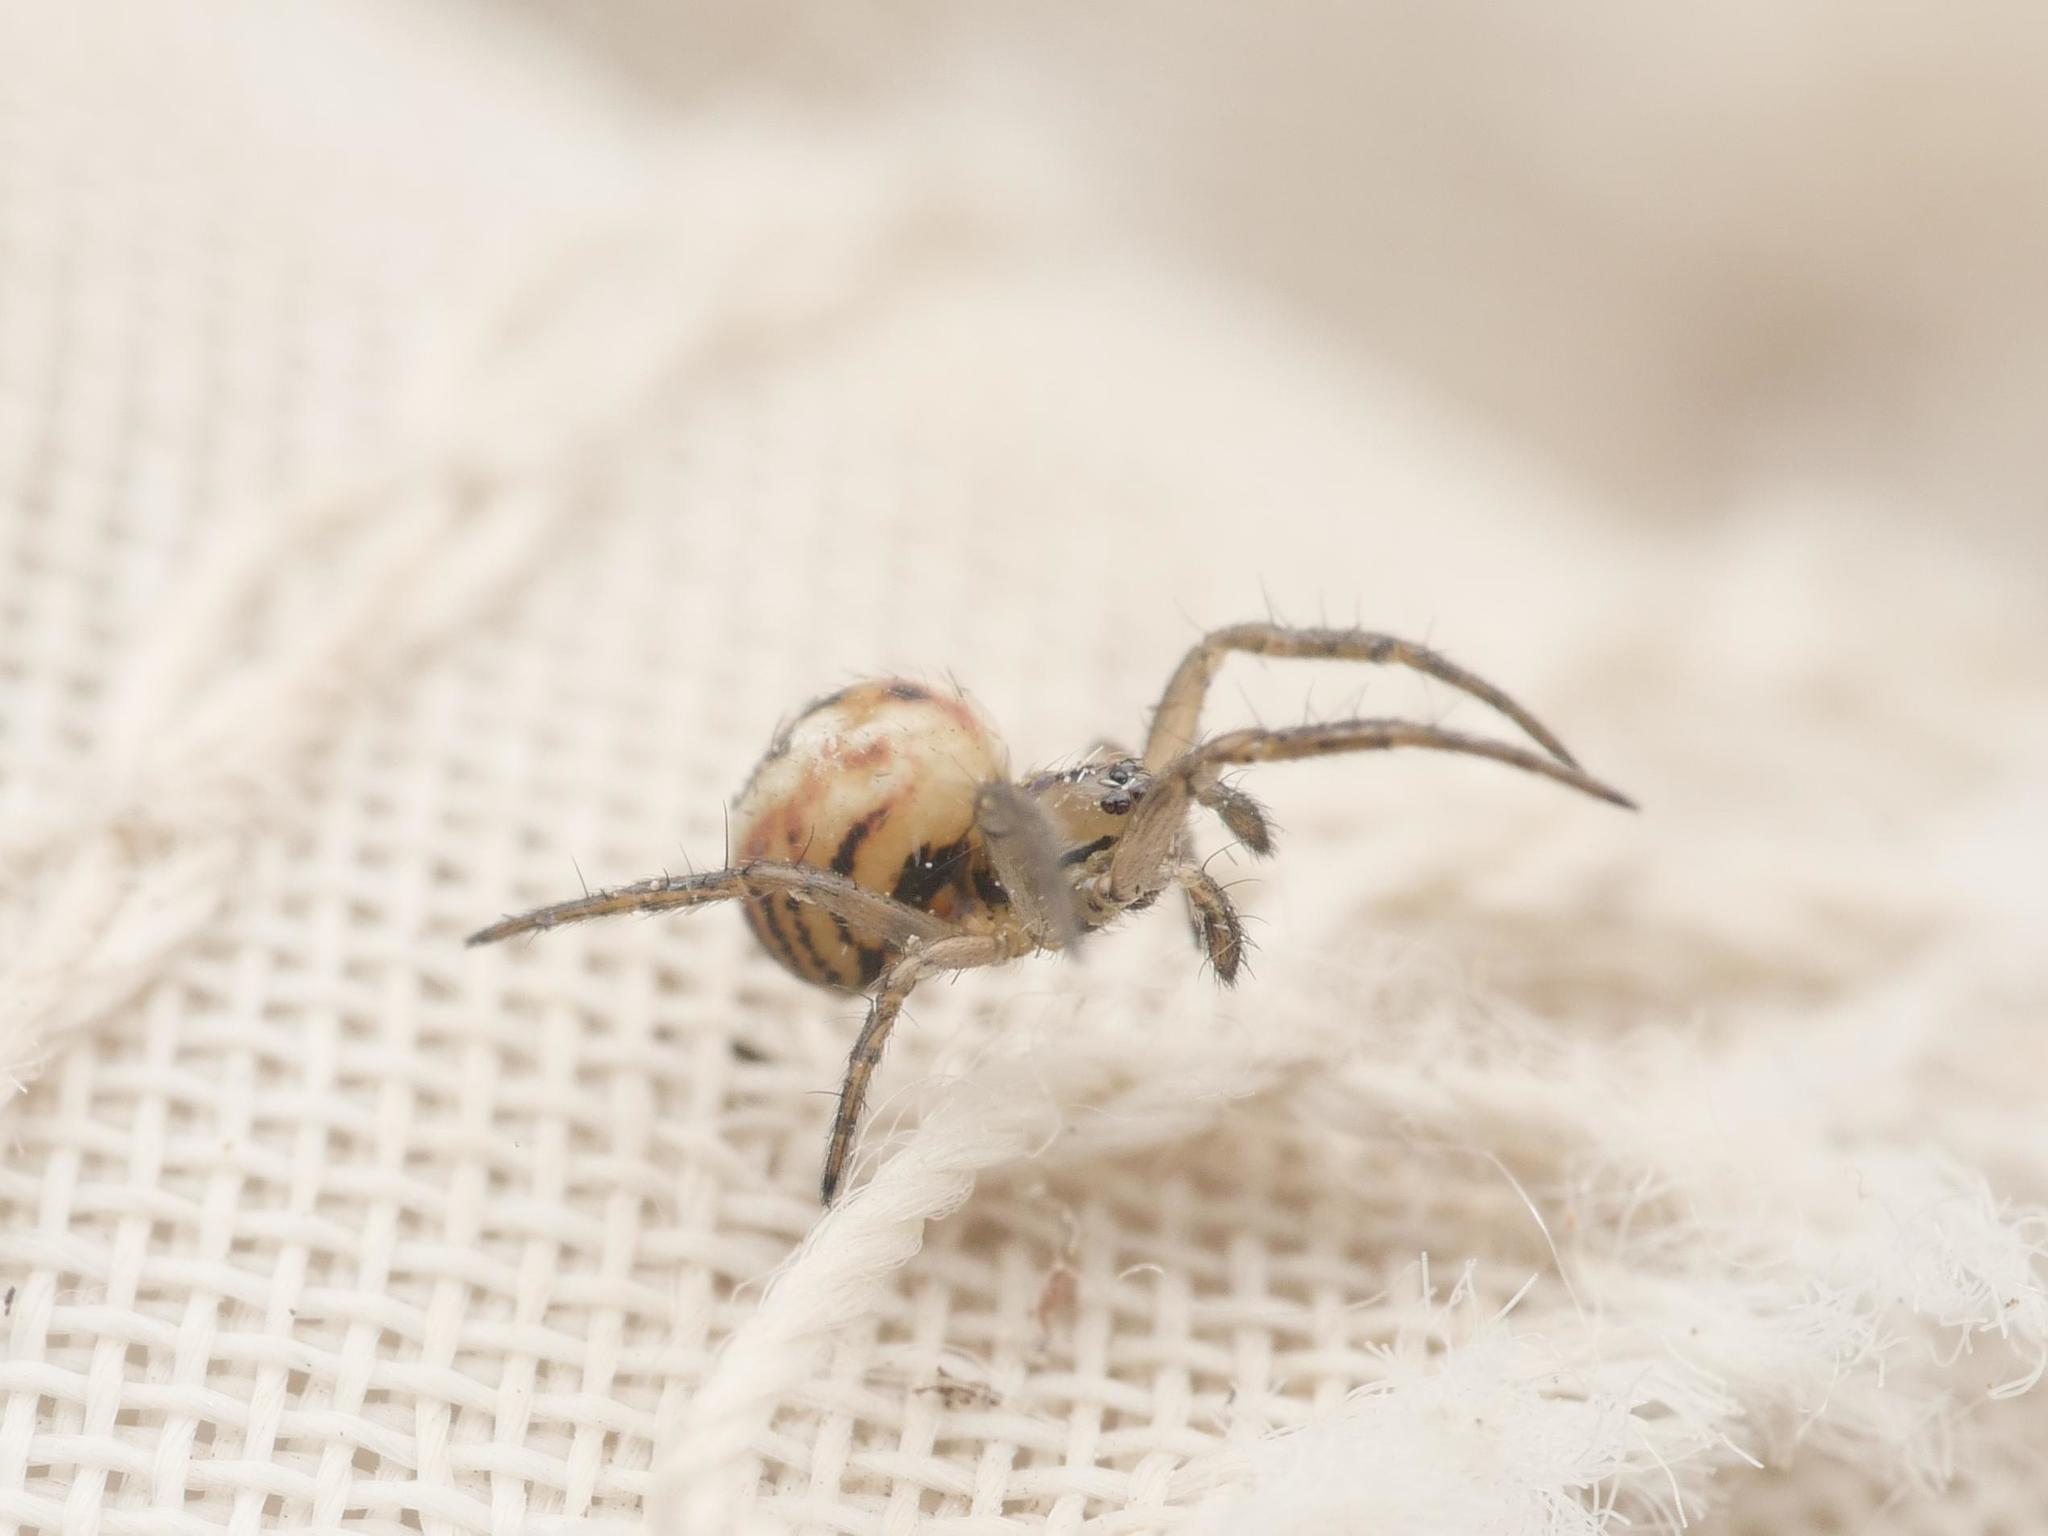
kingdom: Animalia
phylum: Arthropoda
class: Arachnida
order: Araneae
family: Araneidae
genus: Mangora
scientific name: Mangora acalypha
